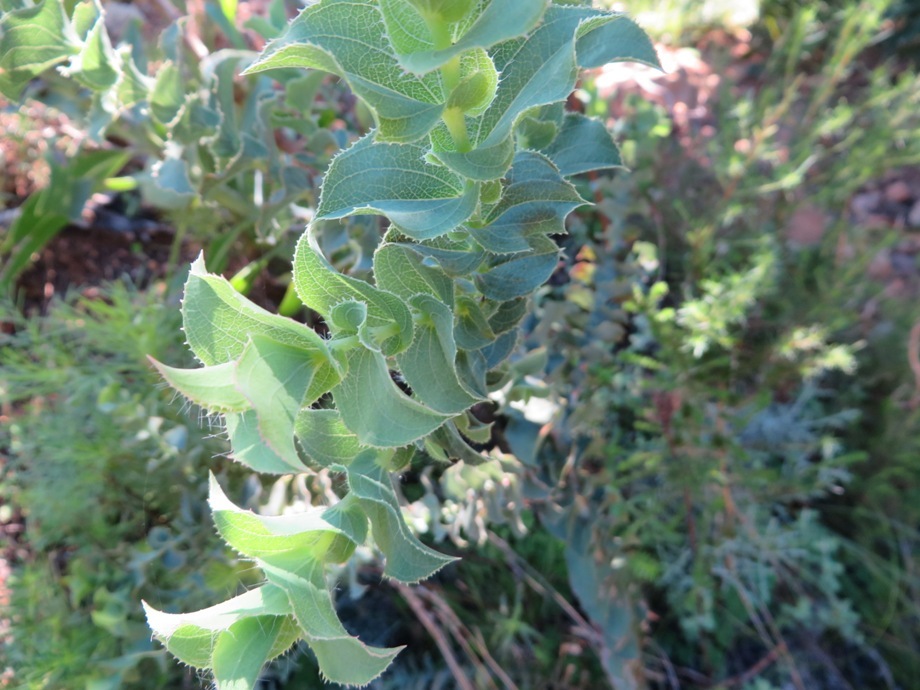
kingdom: Plantae
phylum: Tracheophyta
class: Magnoliopsida
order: Fabales
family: Fabaceae
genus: Aspalathus
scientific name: Aspalathus perfoliata
